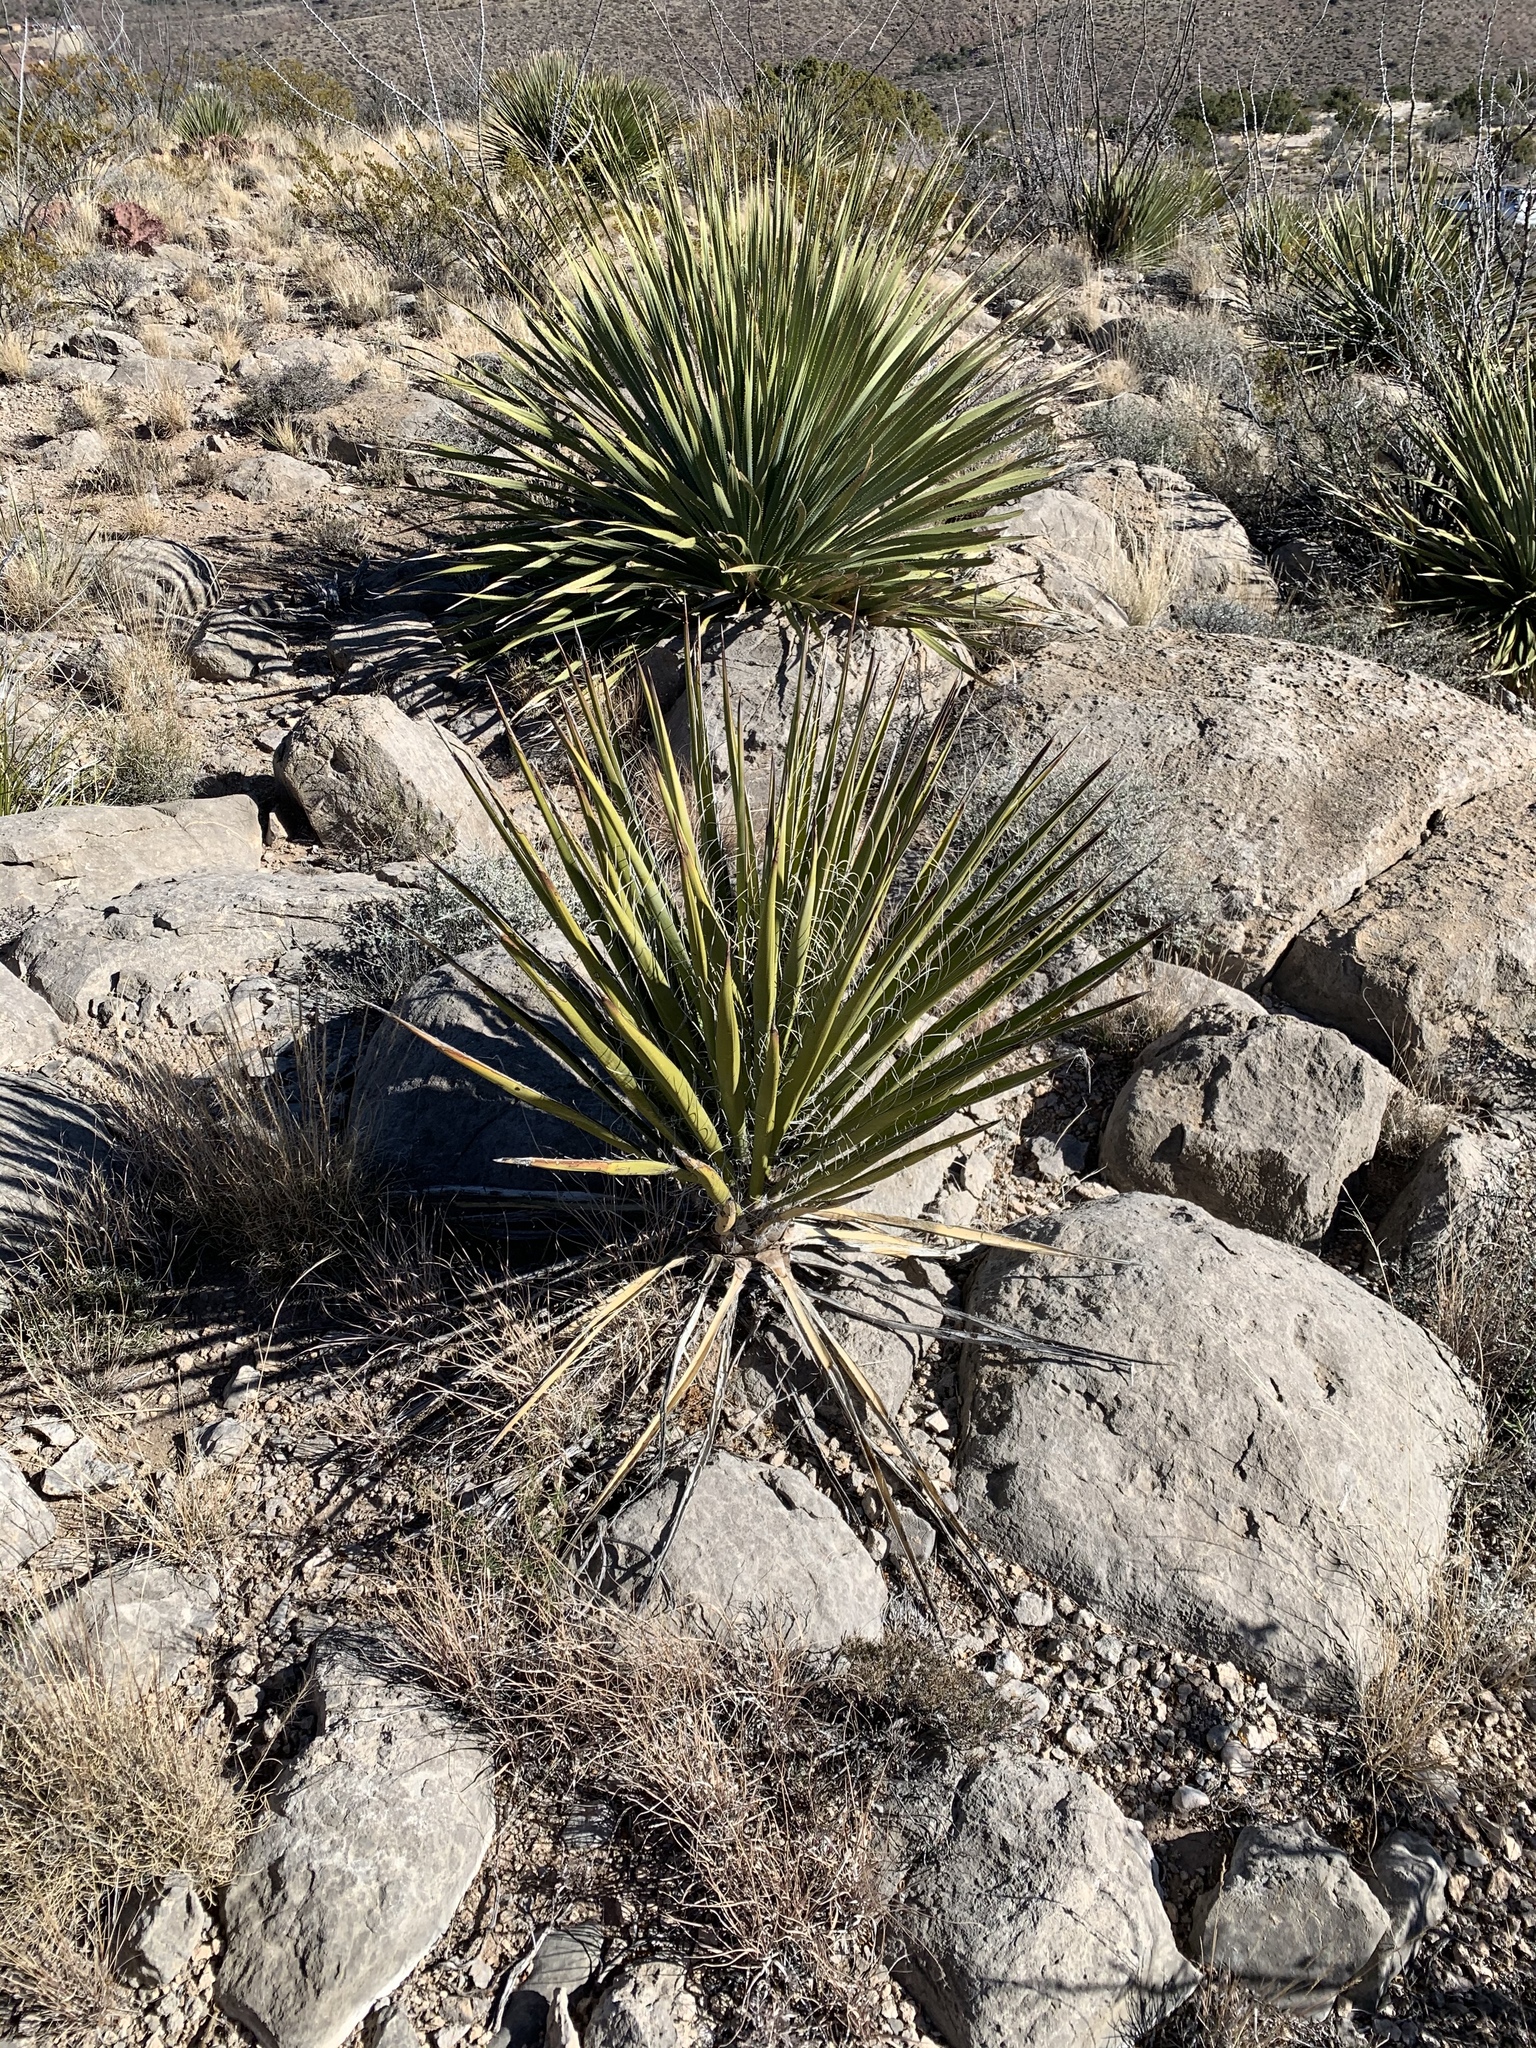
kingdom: Plantae
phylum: Tracheophyta
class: Liliopsida
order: Asparagales
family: Asparagaceae
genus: Yucca
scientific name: Yucca treculiana
